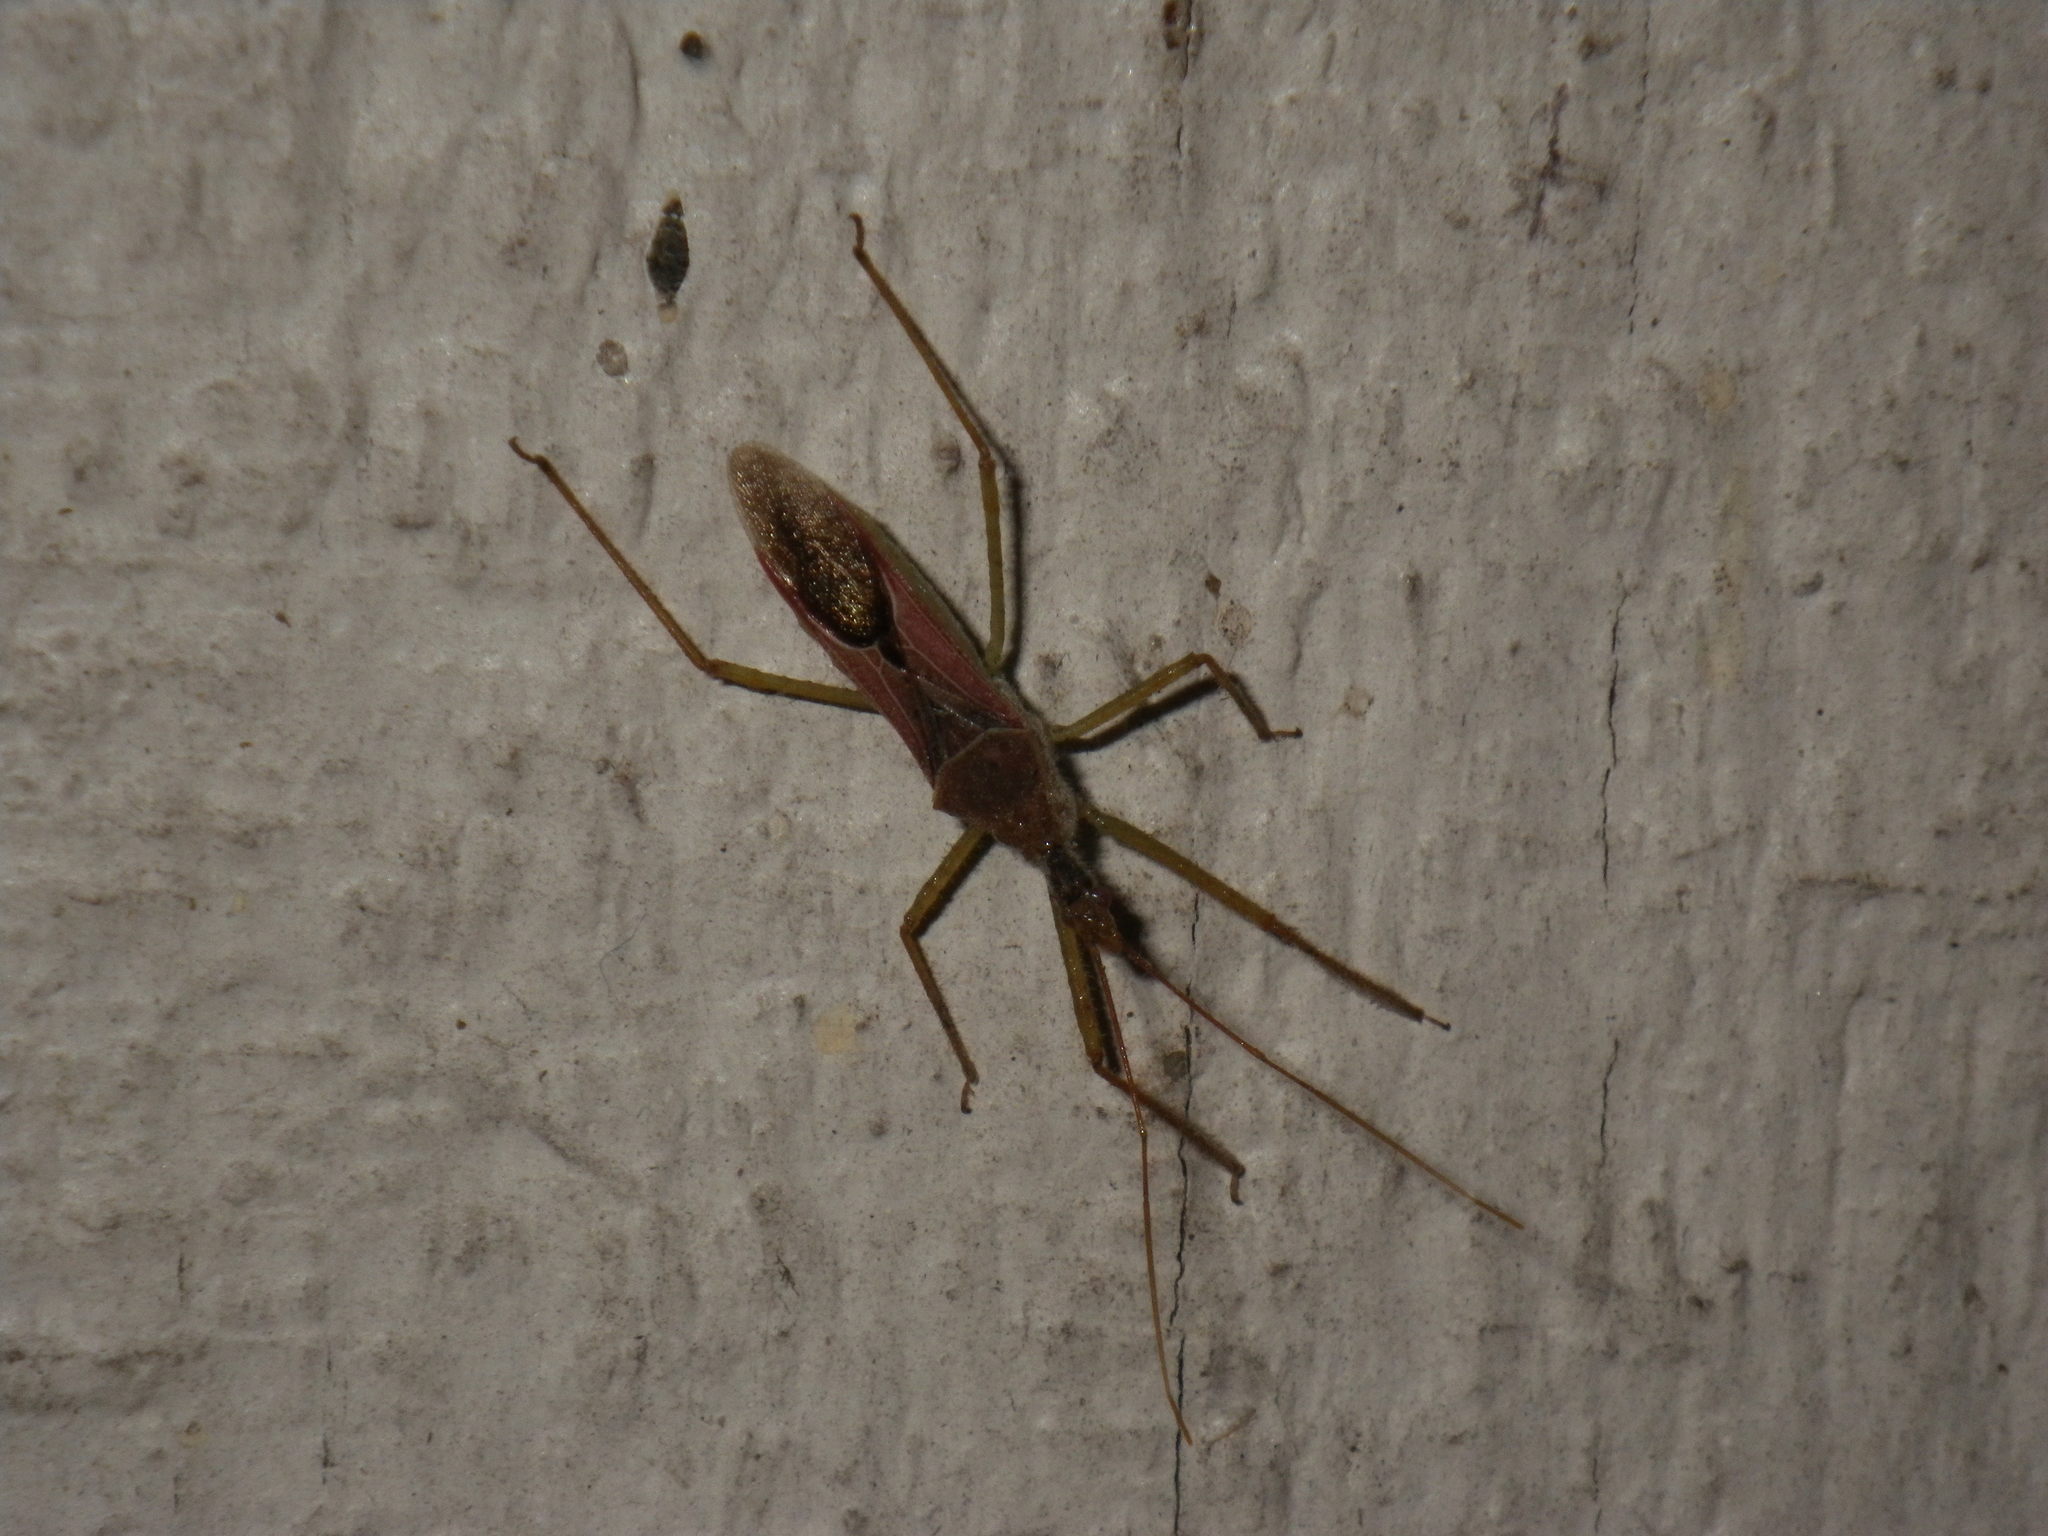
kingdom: Animalia
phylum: Arthropoda
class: Insecta
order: Hemiptera
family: Reduviidae
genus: Zelus
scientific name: Zelus renardii
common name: Assassin bug
